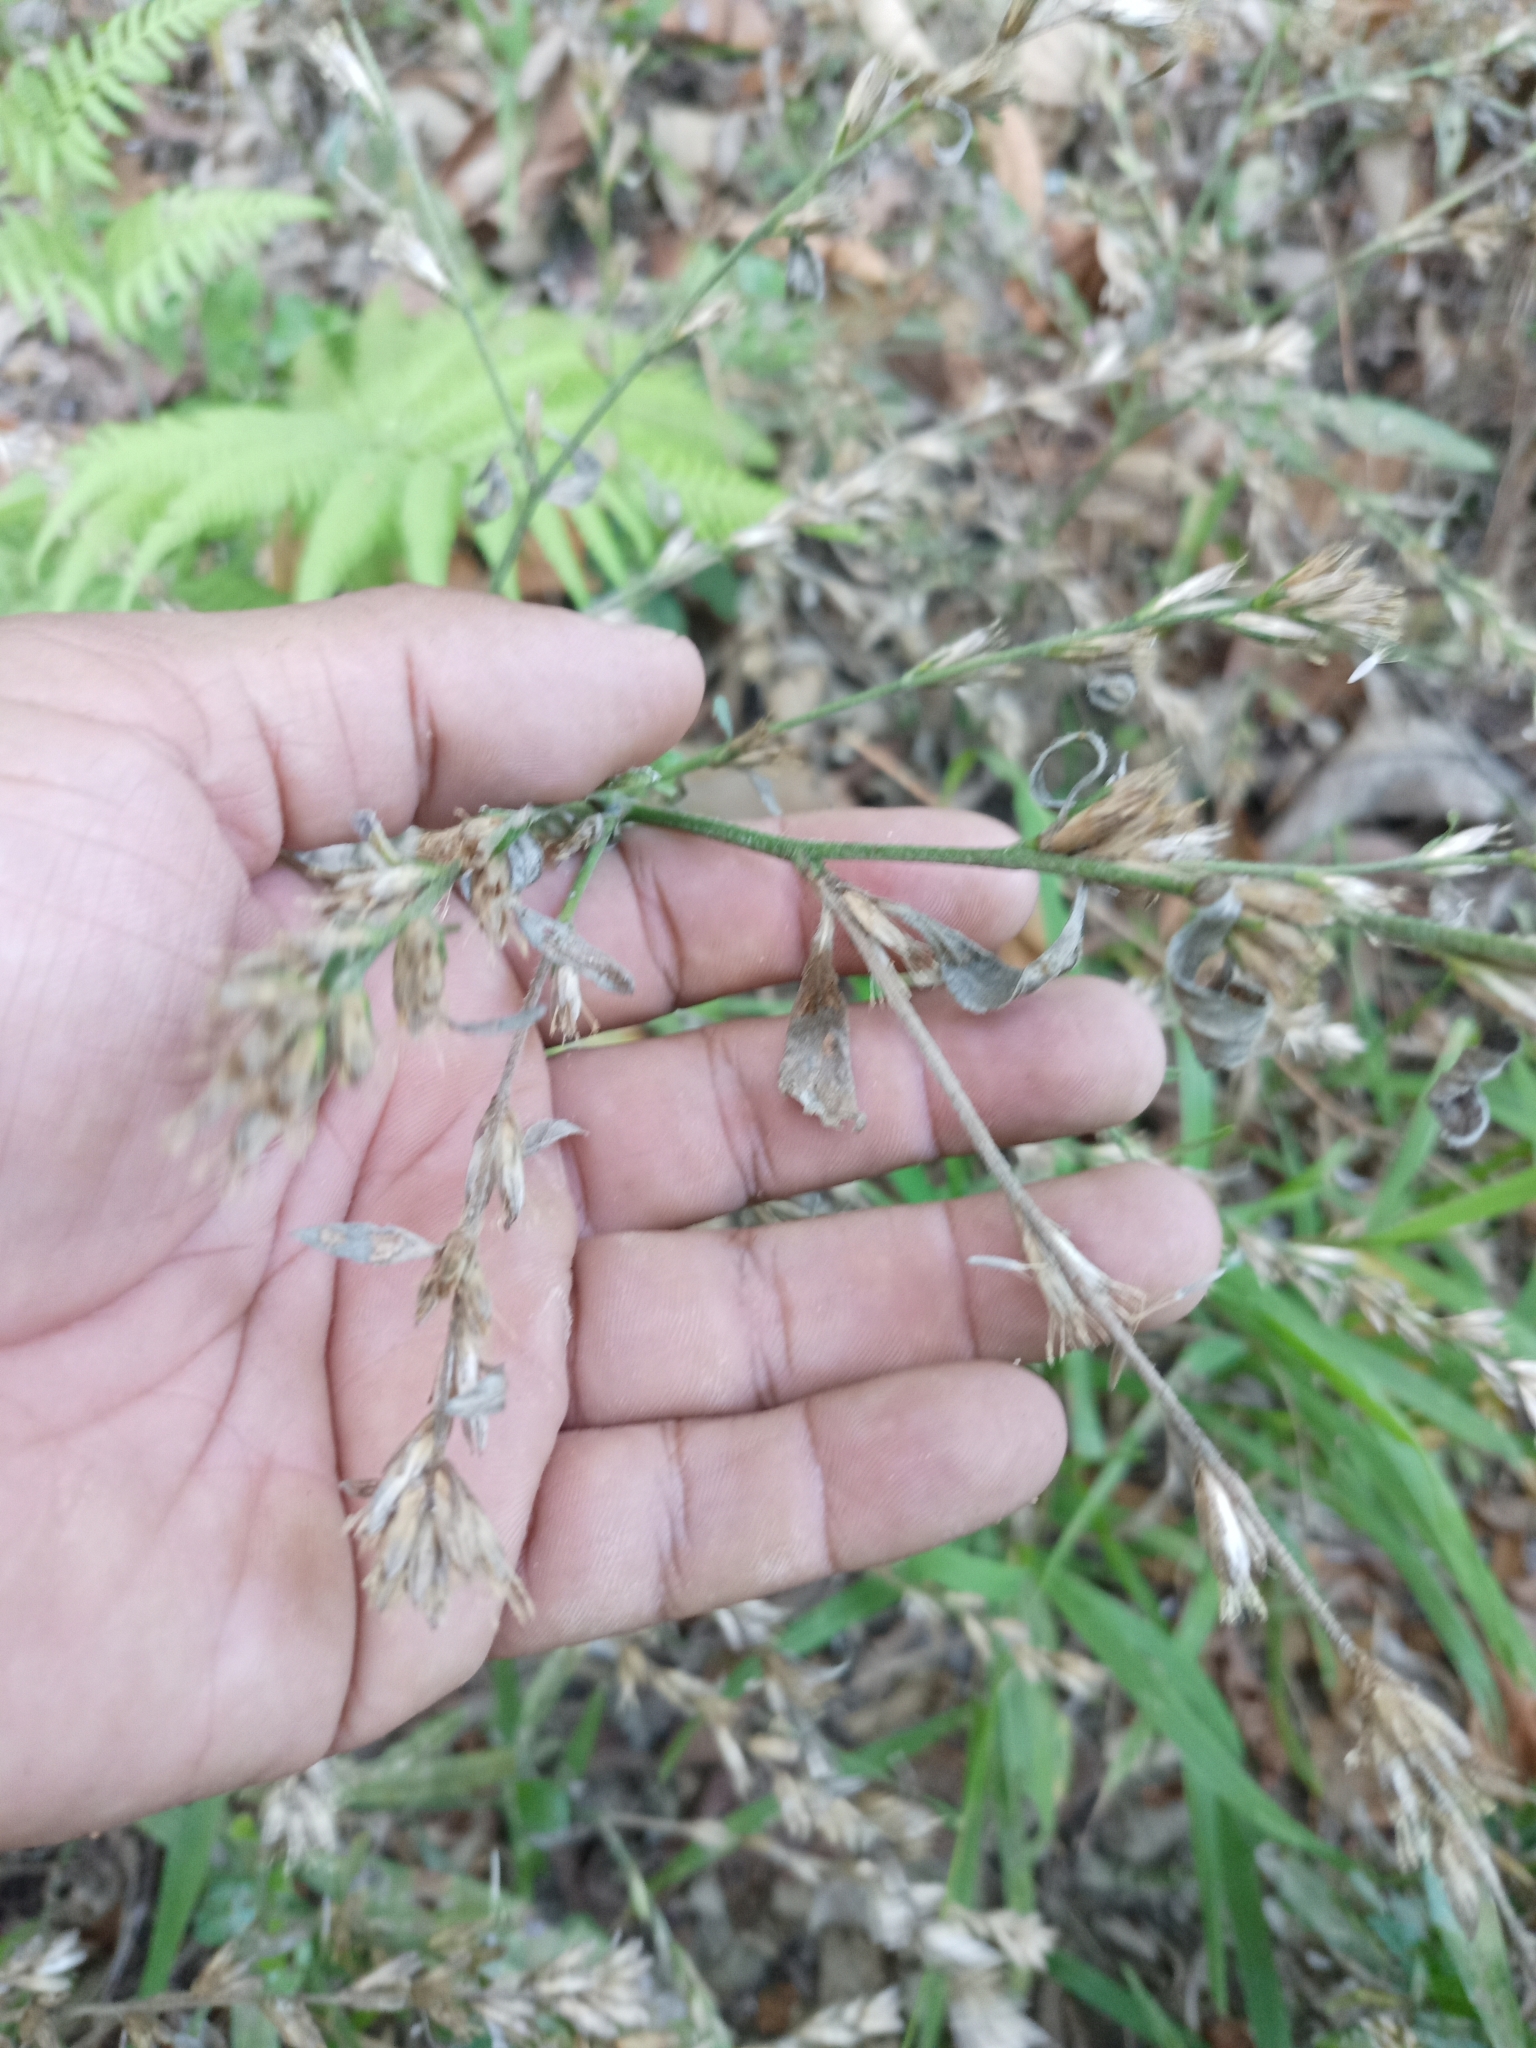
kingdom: Plantae
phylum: Tracheophyta
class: Magnoliopsida
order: Asterales
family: Asteraceae
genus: Pseudelephantopus
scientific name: Pseudelephantopus spicatus
